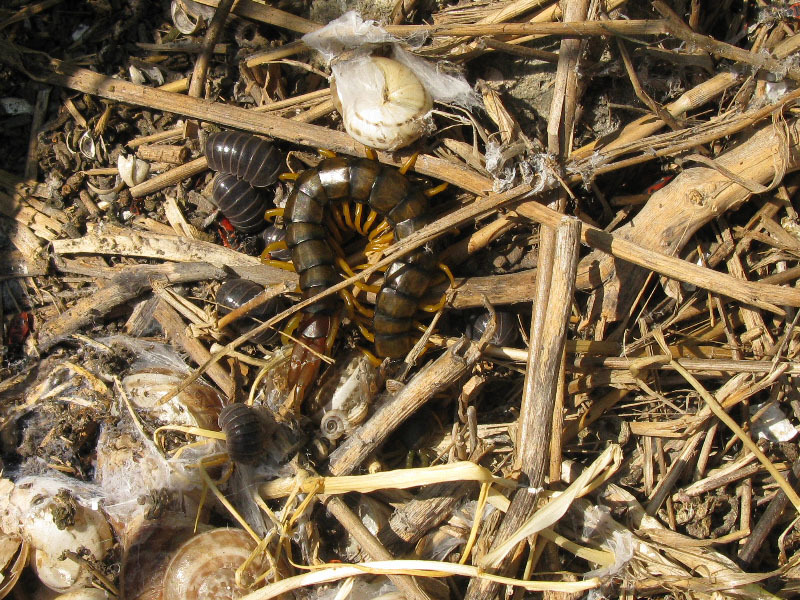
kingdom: Animalia
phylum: Arthropoda
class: Malacostraca
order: Isopoda
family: Armadillidae
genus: Armadillo
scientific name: Armadillo officinalis
